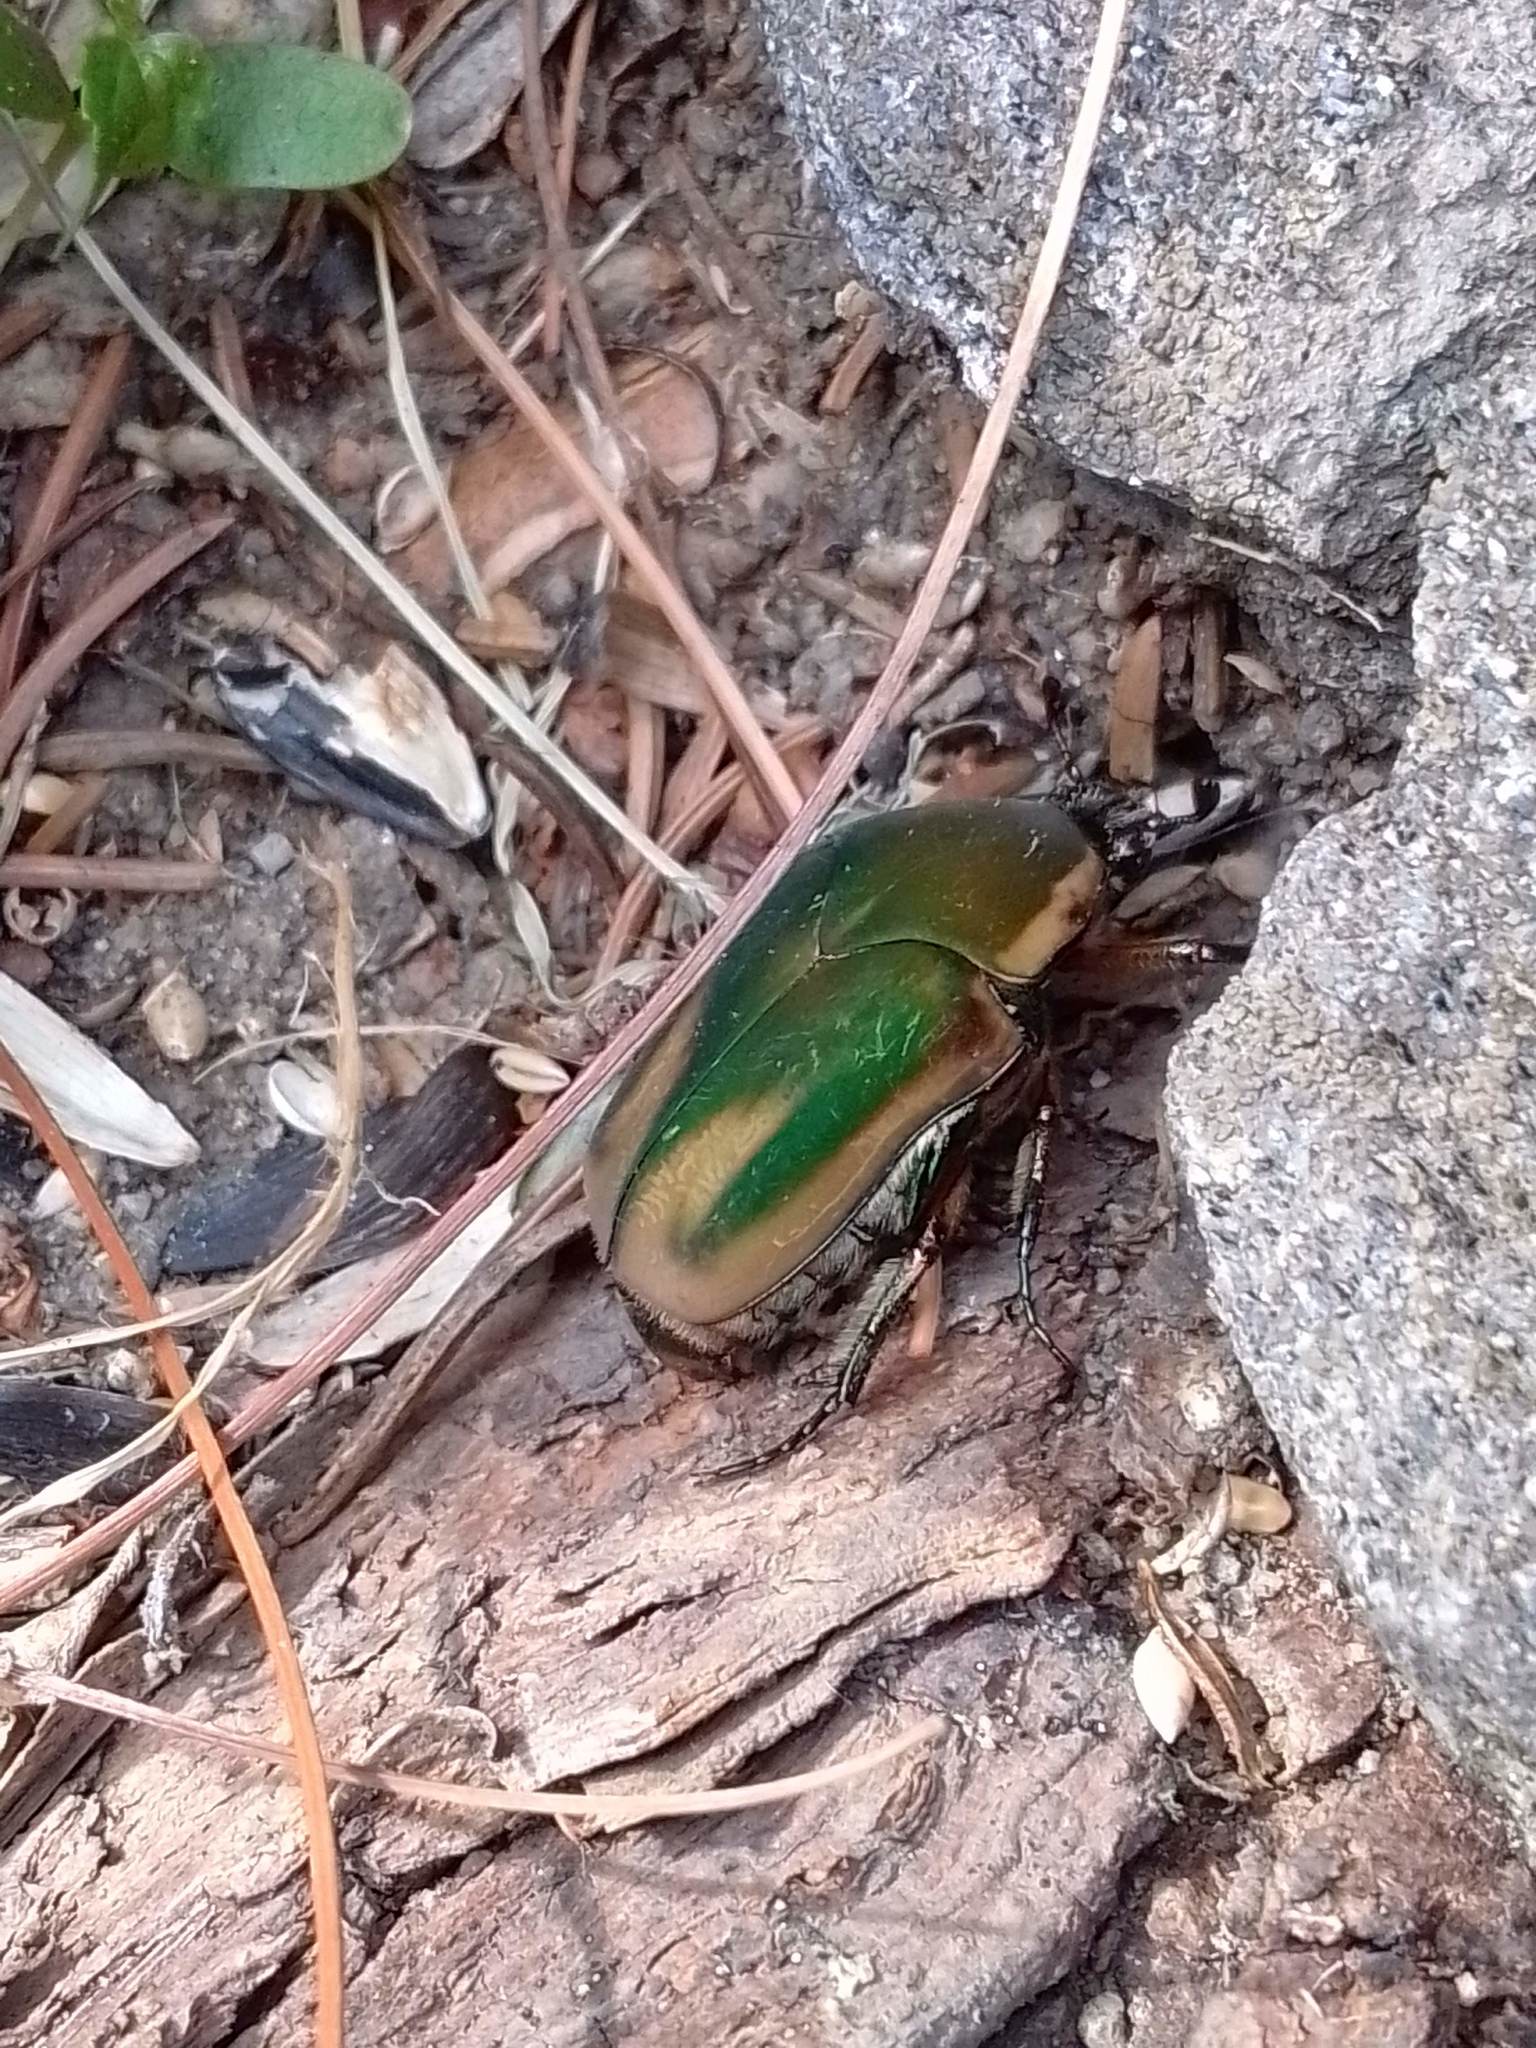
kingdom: Animalia
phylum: Arthropoda
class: Insecta
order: Coleoptera
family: Scarabaeidae
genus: Cotinis
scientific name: Cotinis nitida
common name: Common green june beetle
